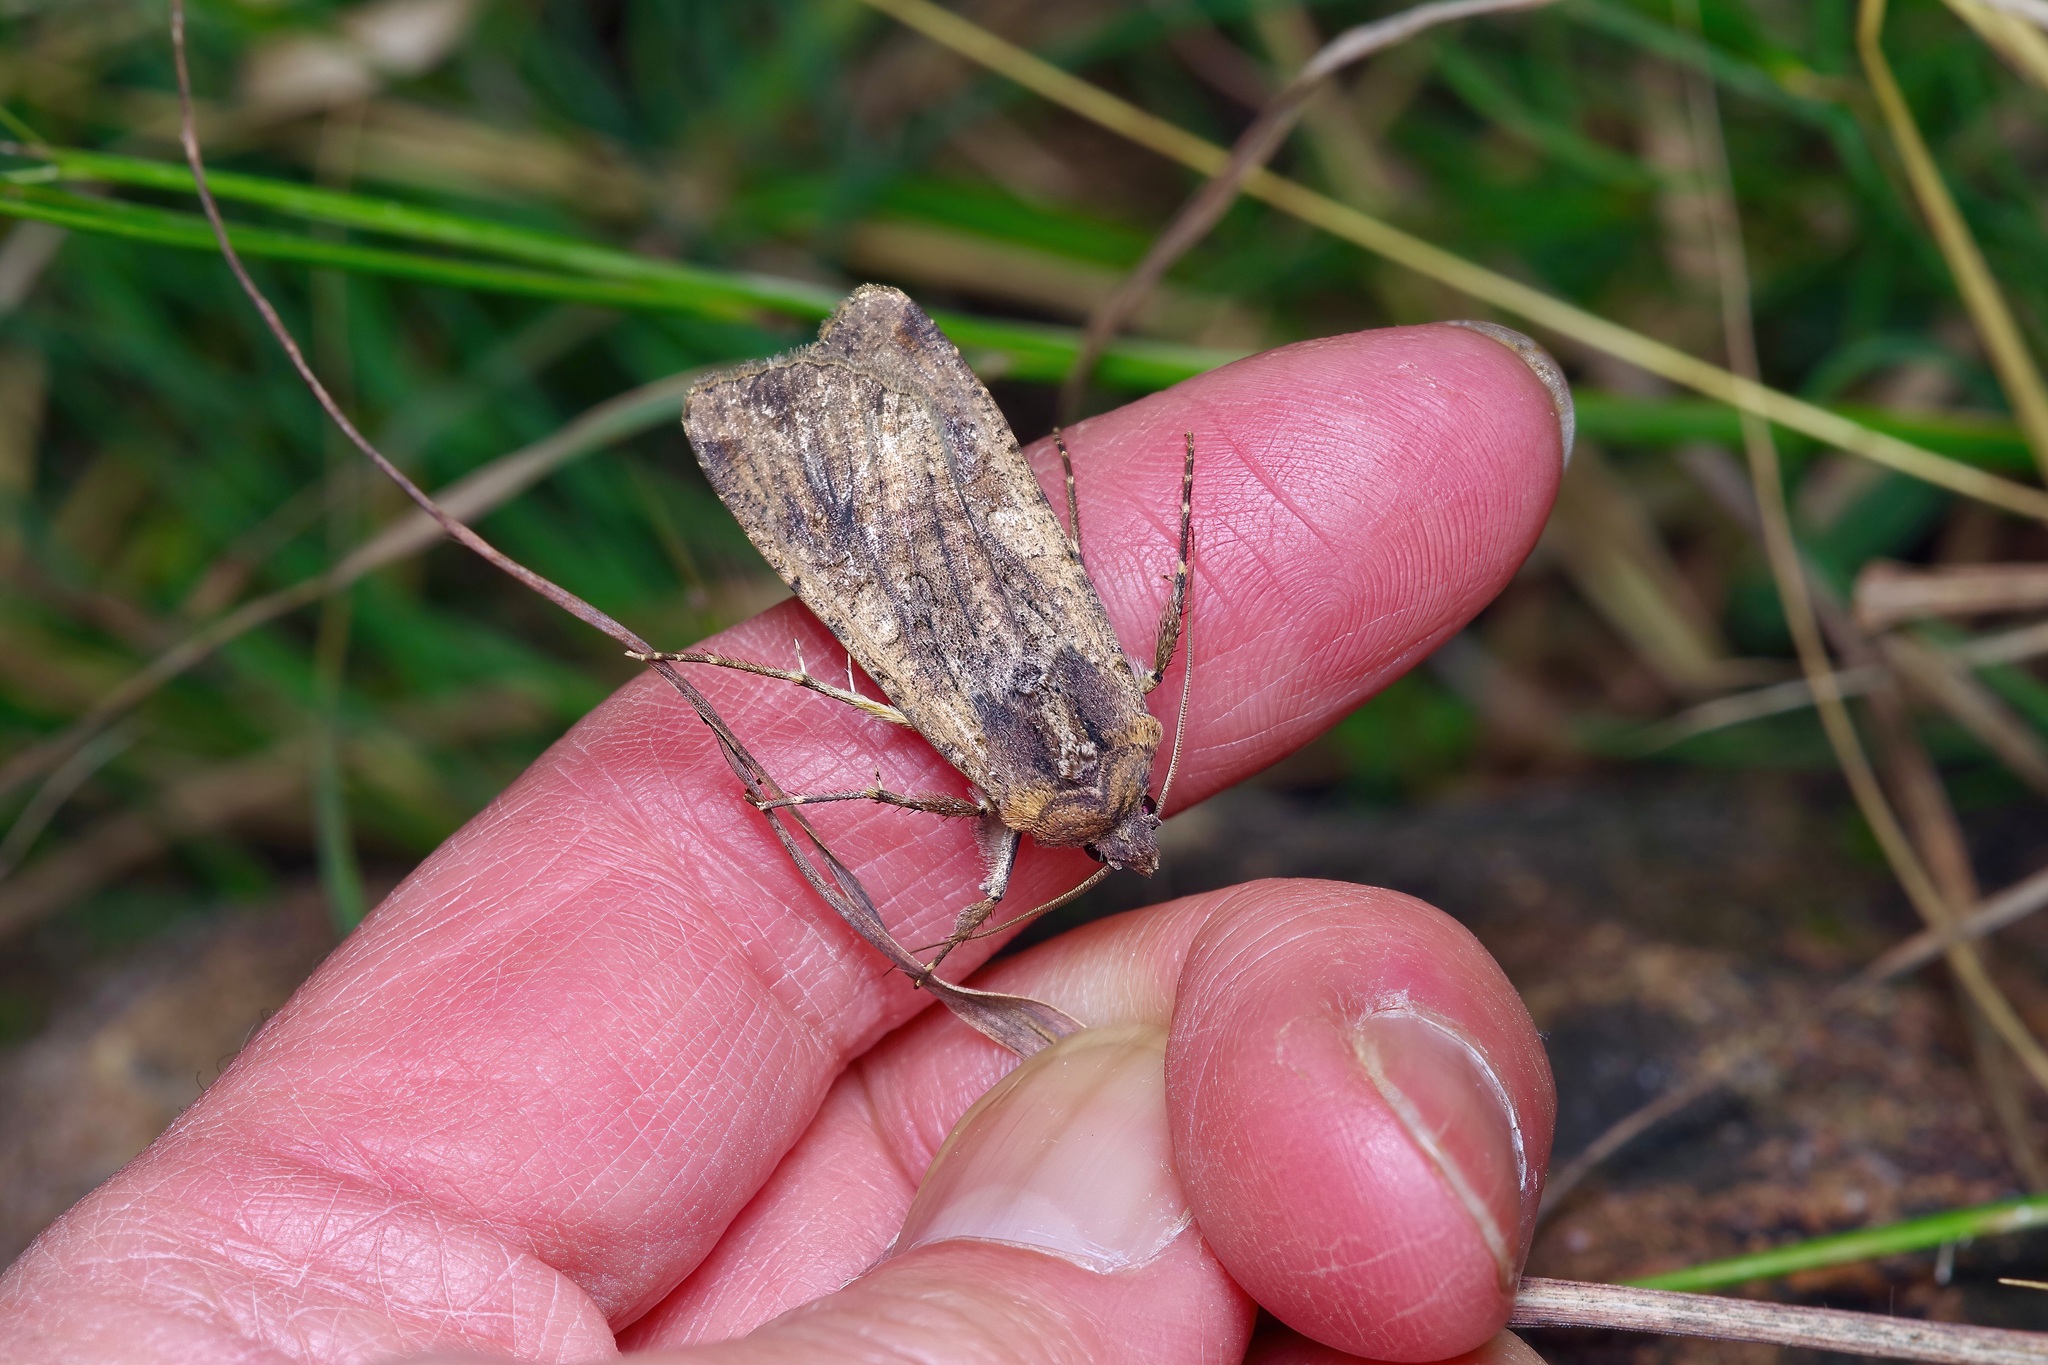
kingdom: Animalia
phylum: Arthropoda
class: Insecta
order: Lepidoptera
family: Noctuidae
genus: Peridroma
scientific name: Peridroma saucia
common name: Pearly underwing
